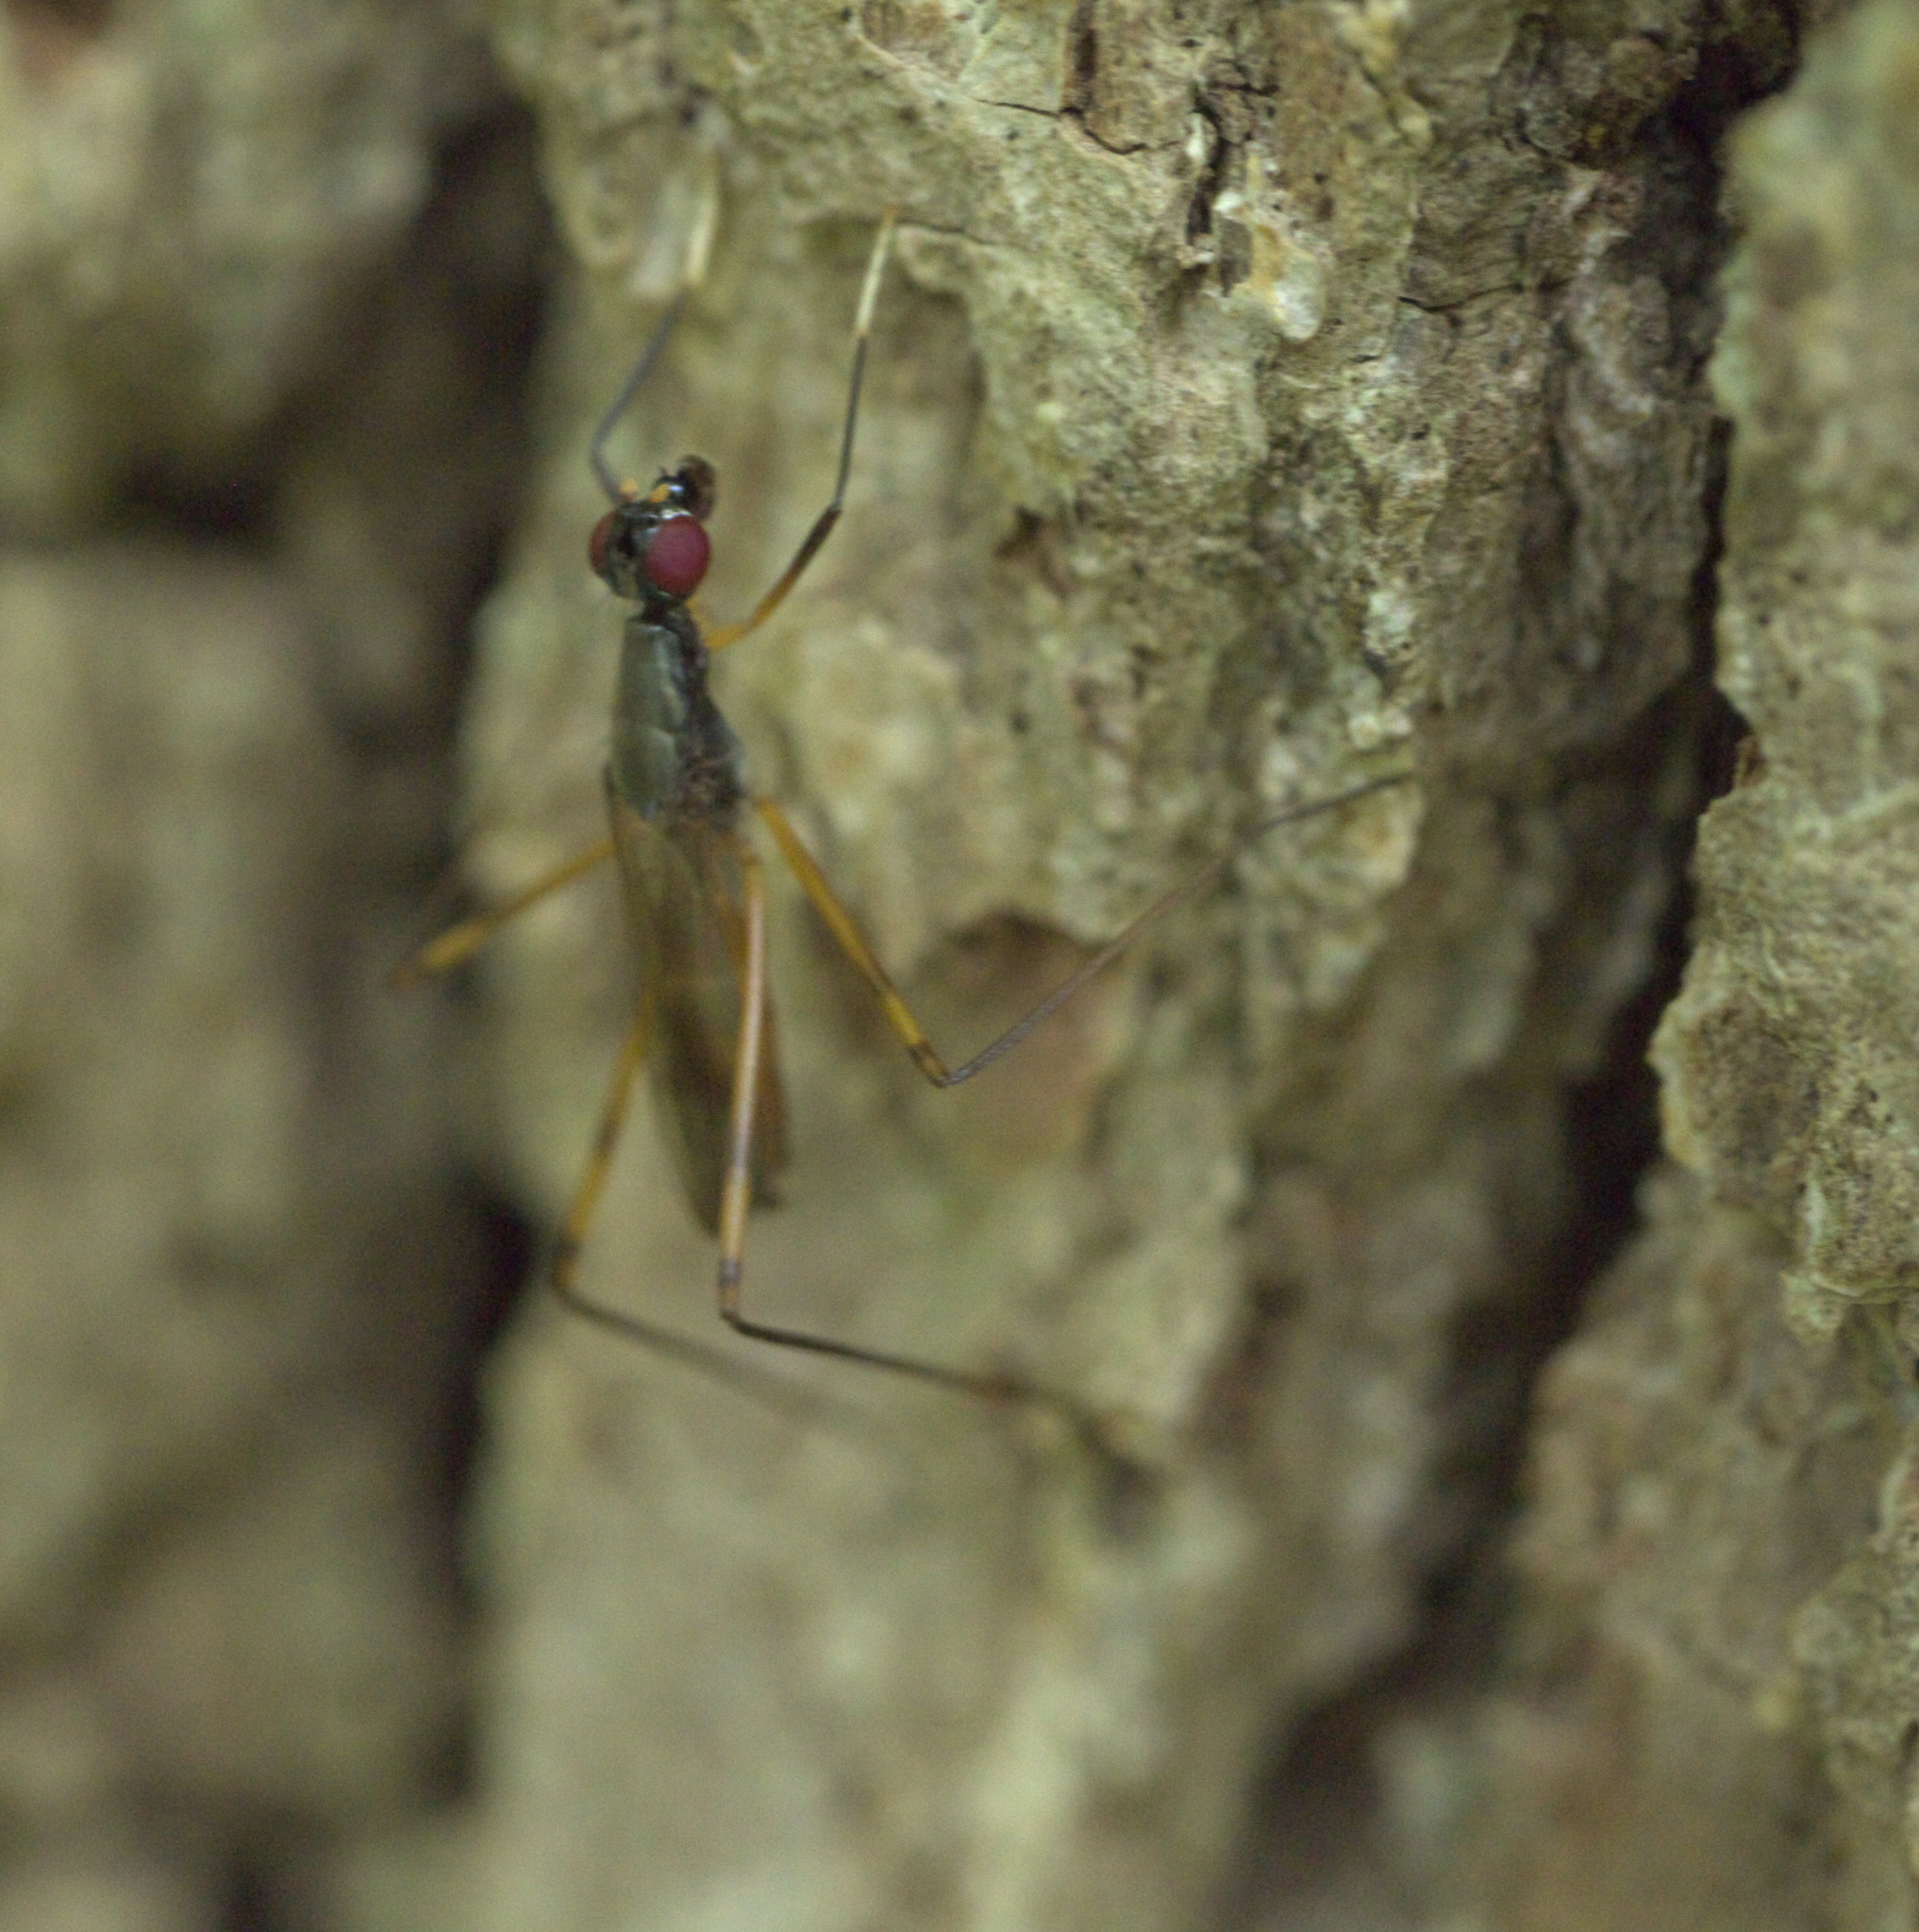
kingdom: Animalia
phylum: Arthropoda
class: Insecta
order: Diptera
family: Micropezidae
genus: Rainieria
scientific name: Rainieria antennaepes
